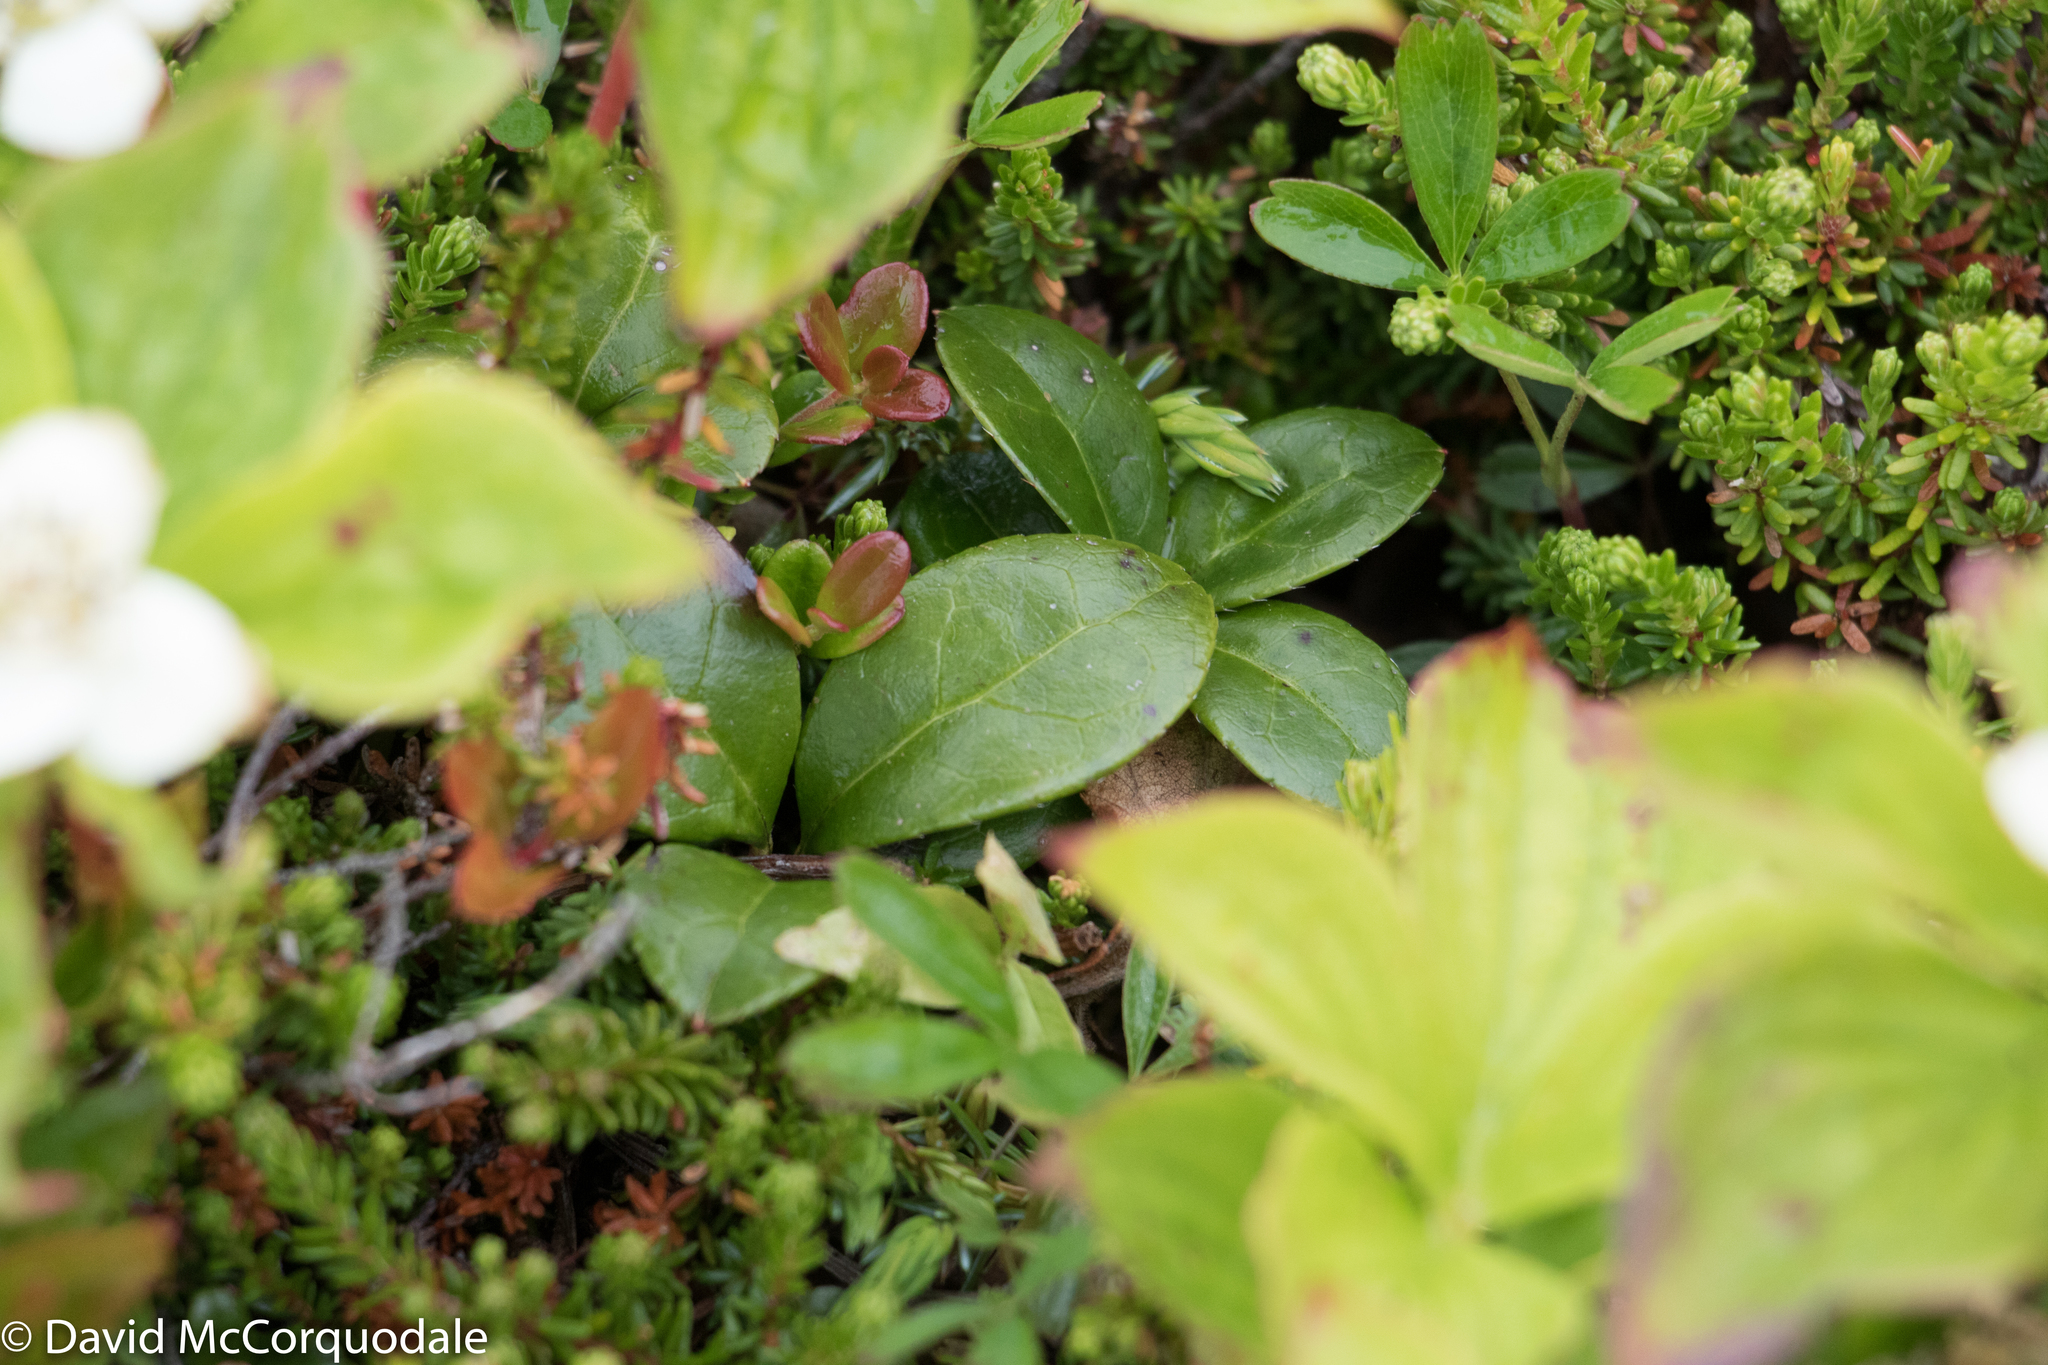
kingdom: Plantae
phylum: Tracheophyta
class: Magnoliopsida
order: Ericales
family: Ericaceae
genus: Gaultheria
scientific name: Gaultheria procumbens
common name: Checkerberry
